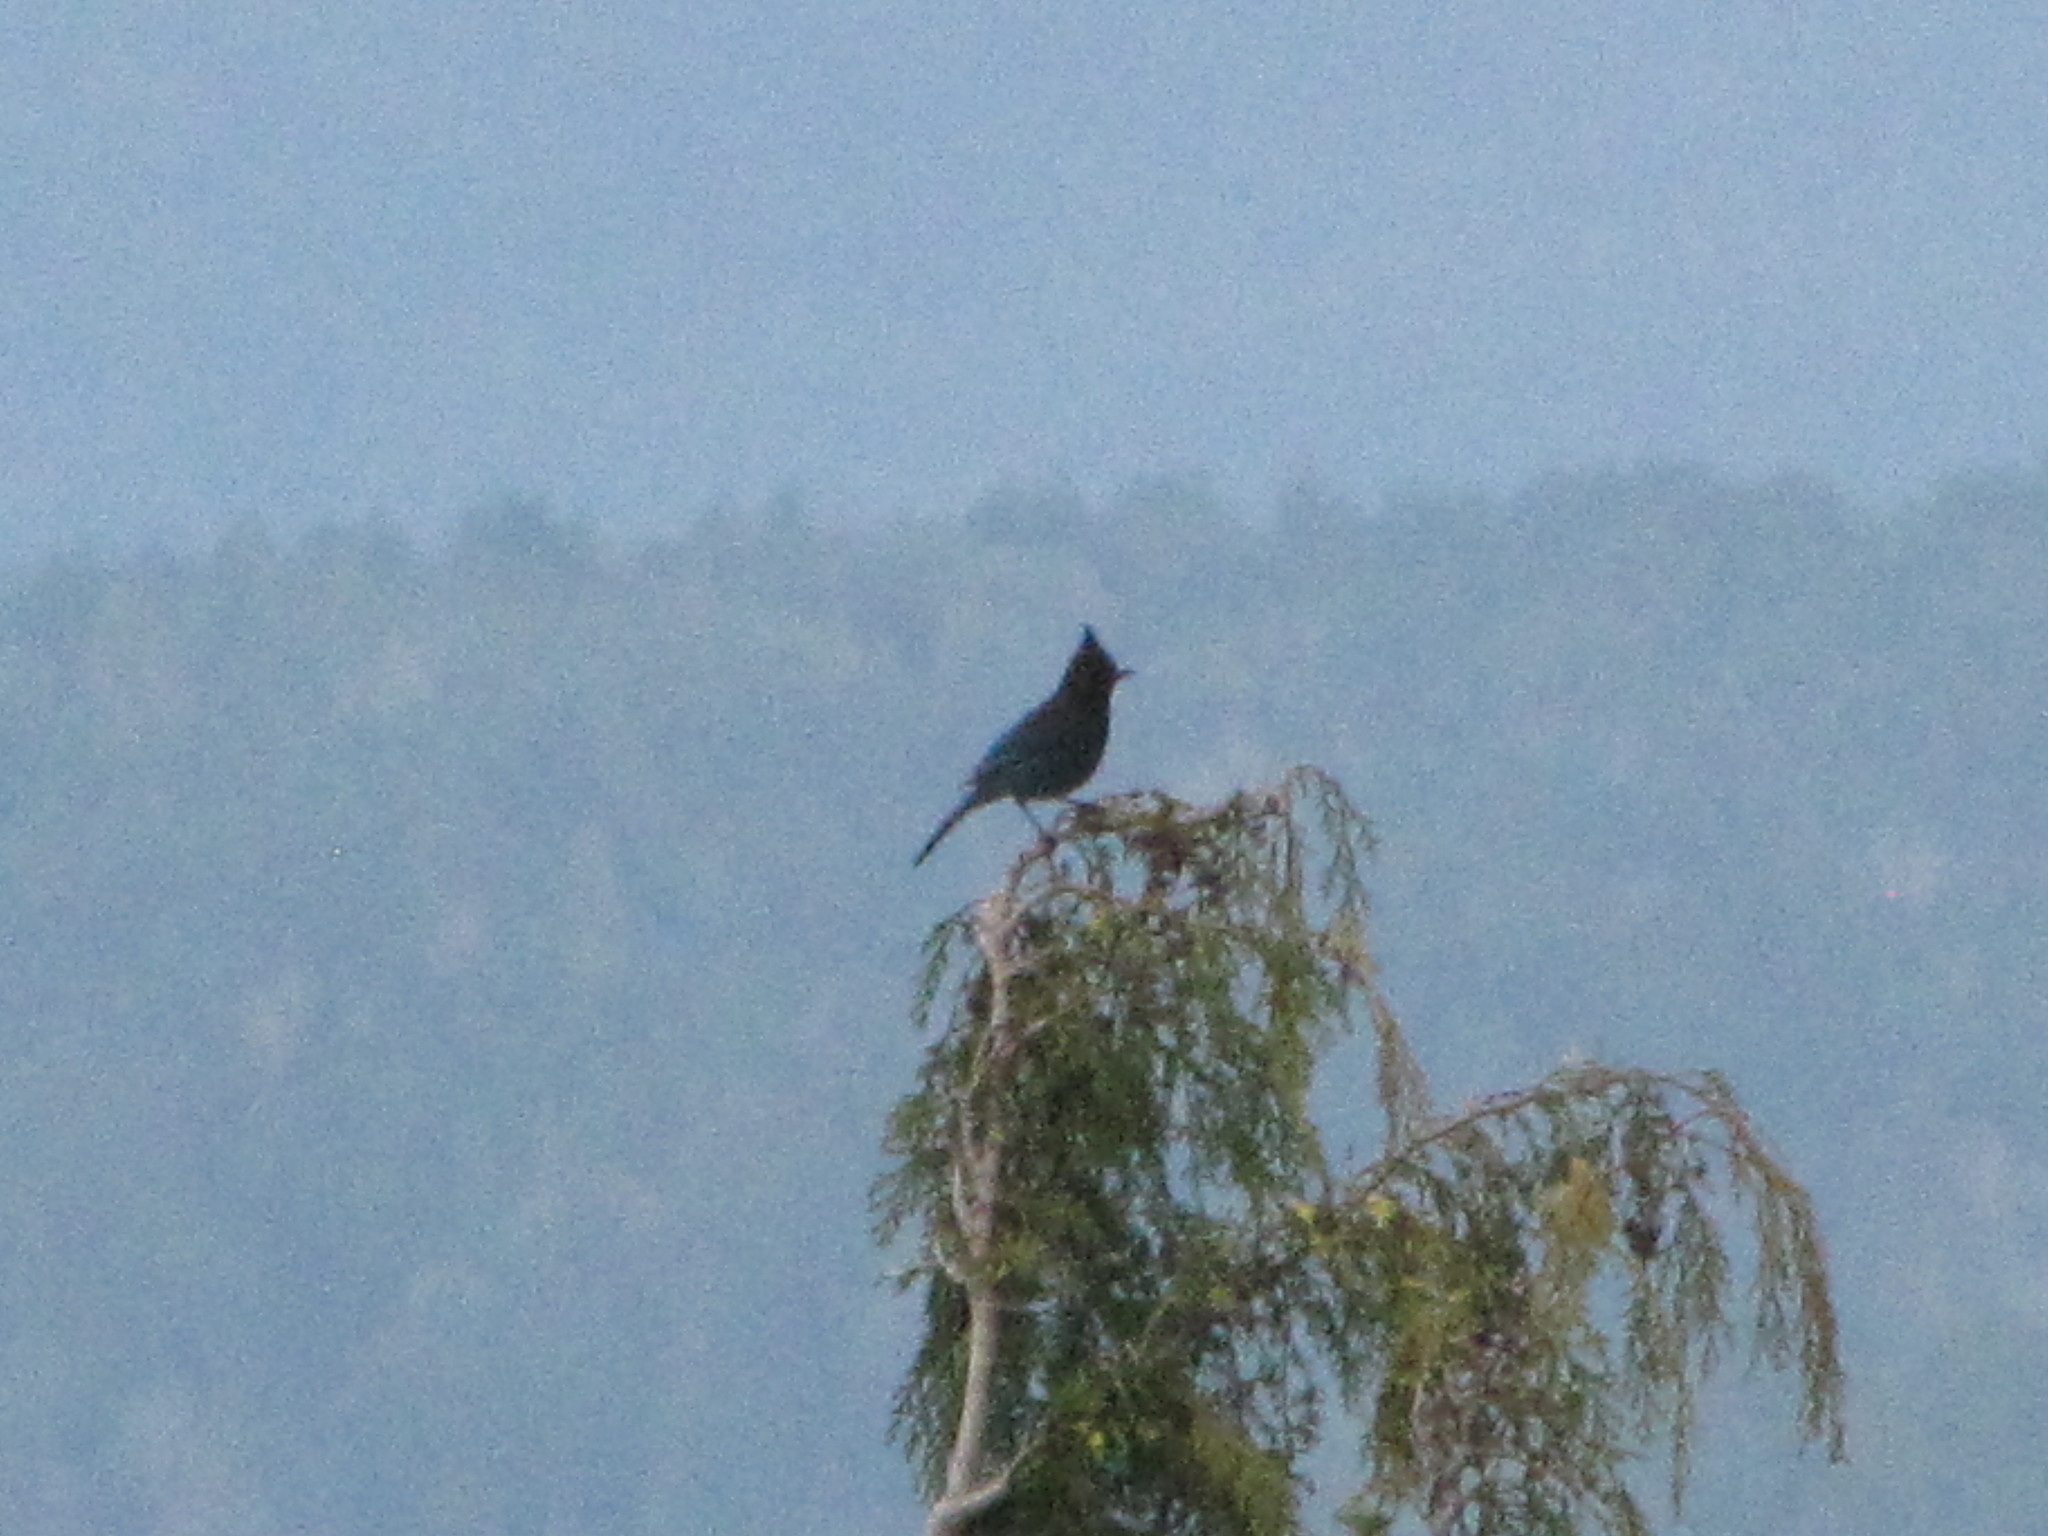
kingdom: Animalia
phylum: Chordata
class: Aves
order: Passeriformes
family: Corvidae
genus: Cyanocitta
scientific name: Cyanocitta stelleri
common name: Steller's jay
